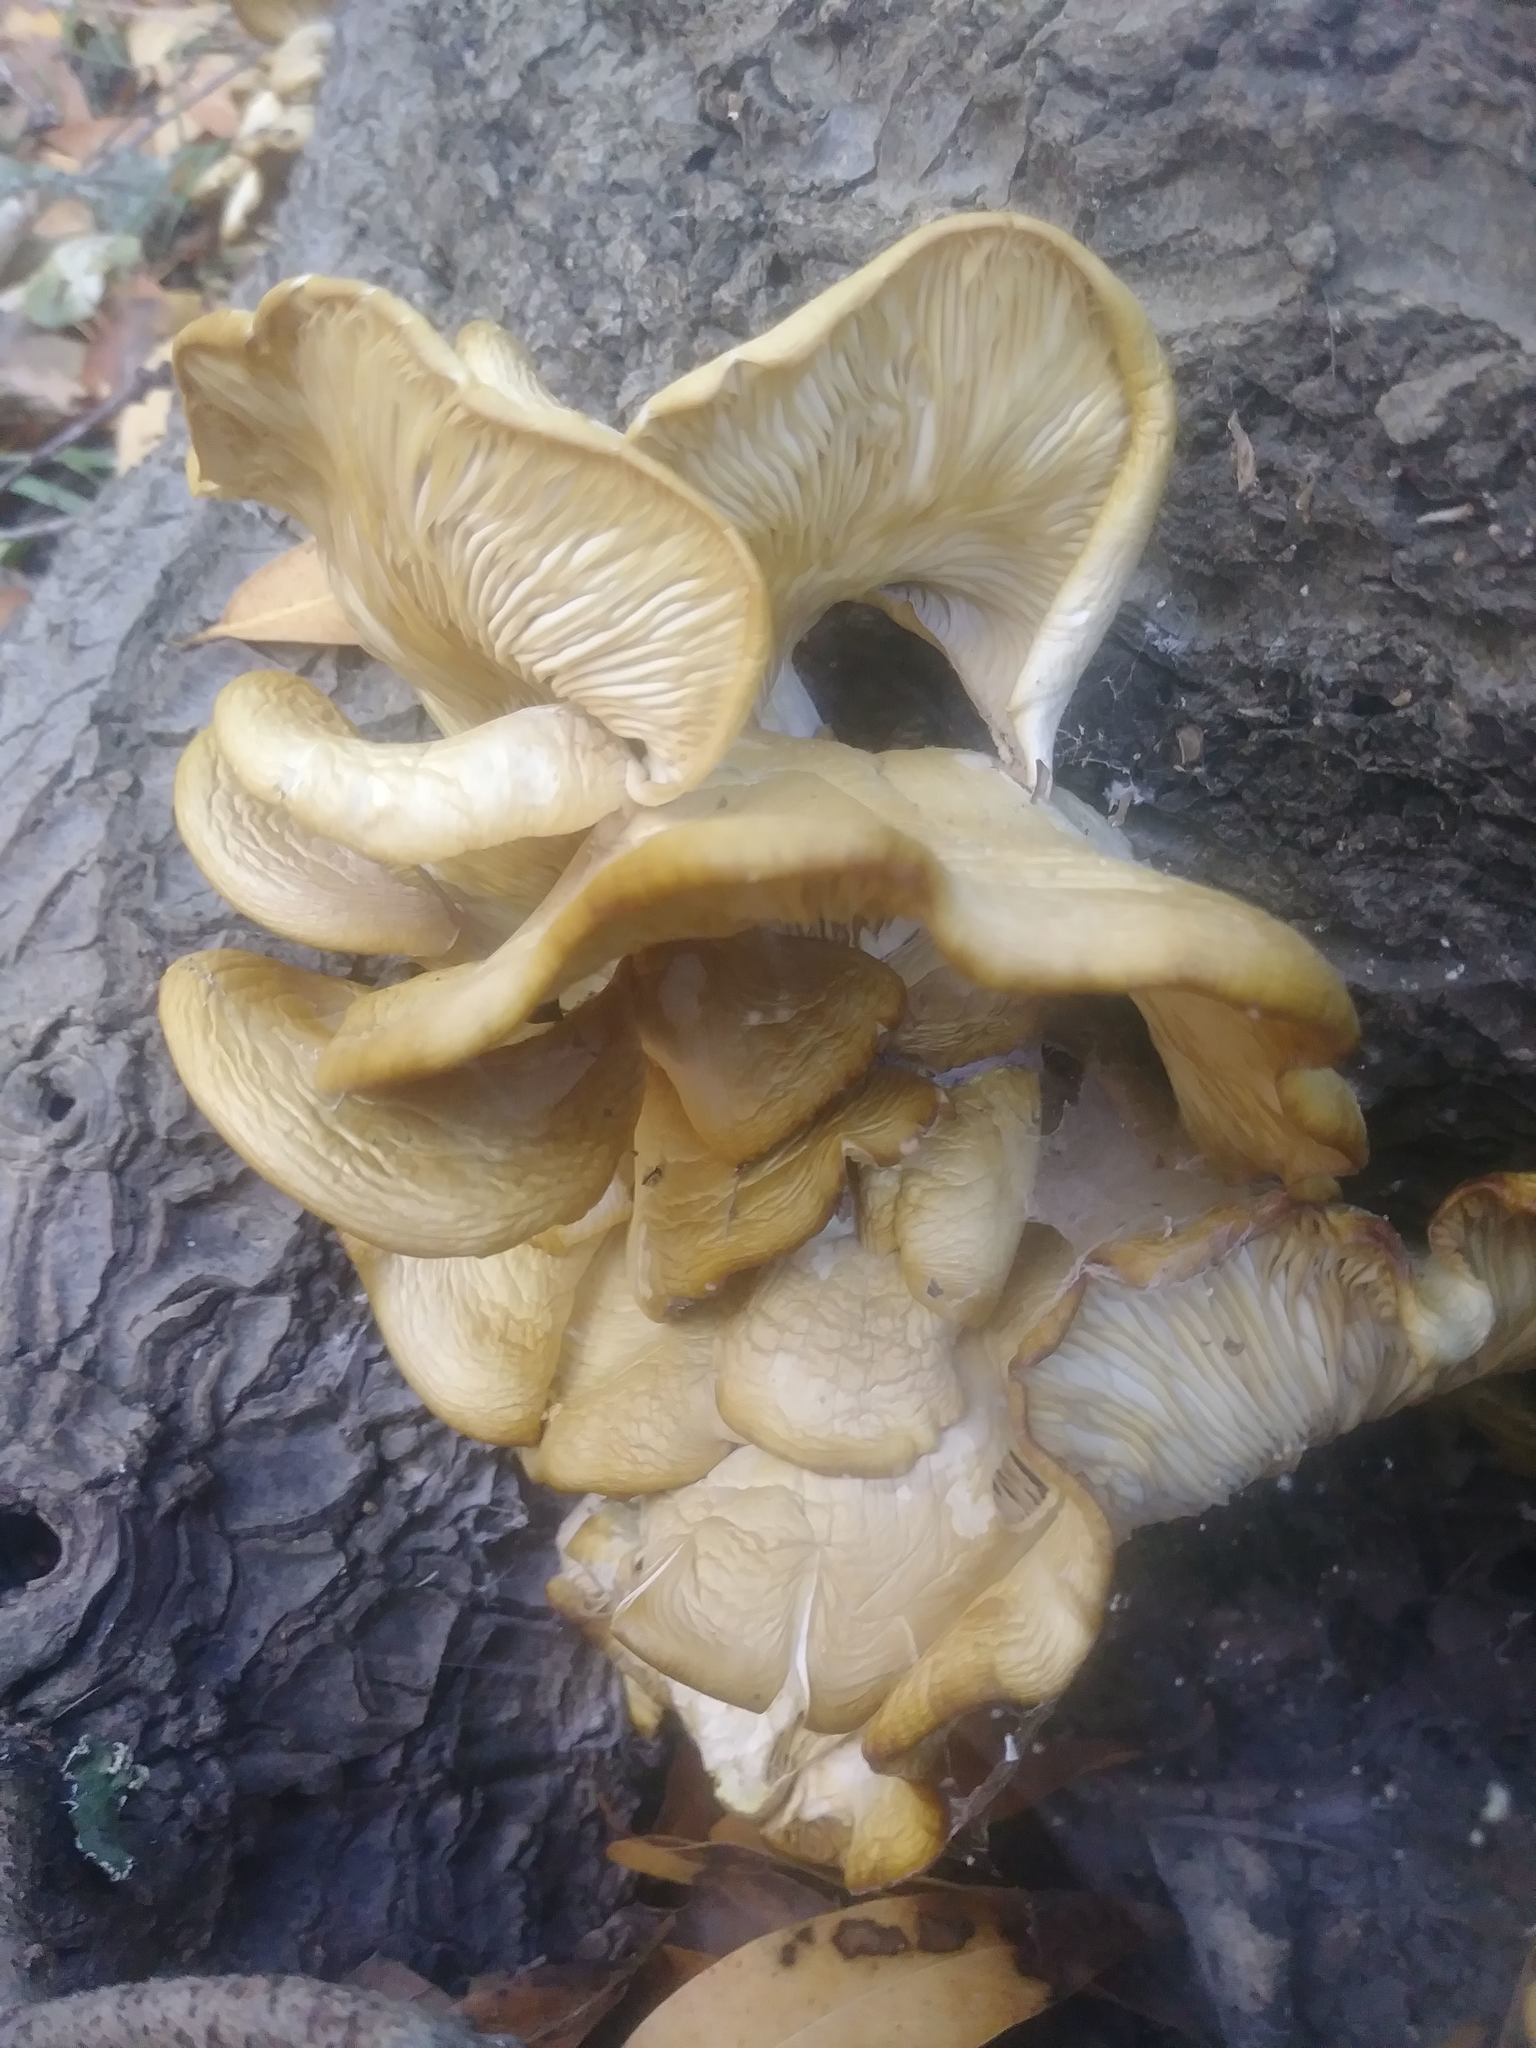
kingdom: Fungi
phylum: Basidiomycota
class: Agaricomycetes
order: Agaricales
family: Pleurotaceae
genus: Pleurotus
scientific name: Pleurotus pulmonarius
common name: Pale oyster
